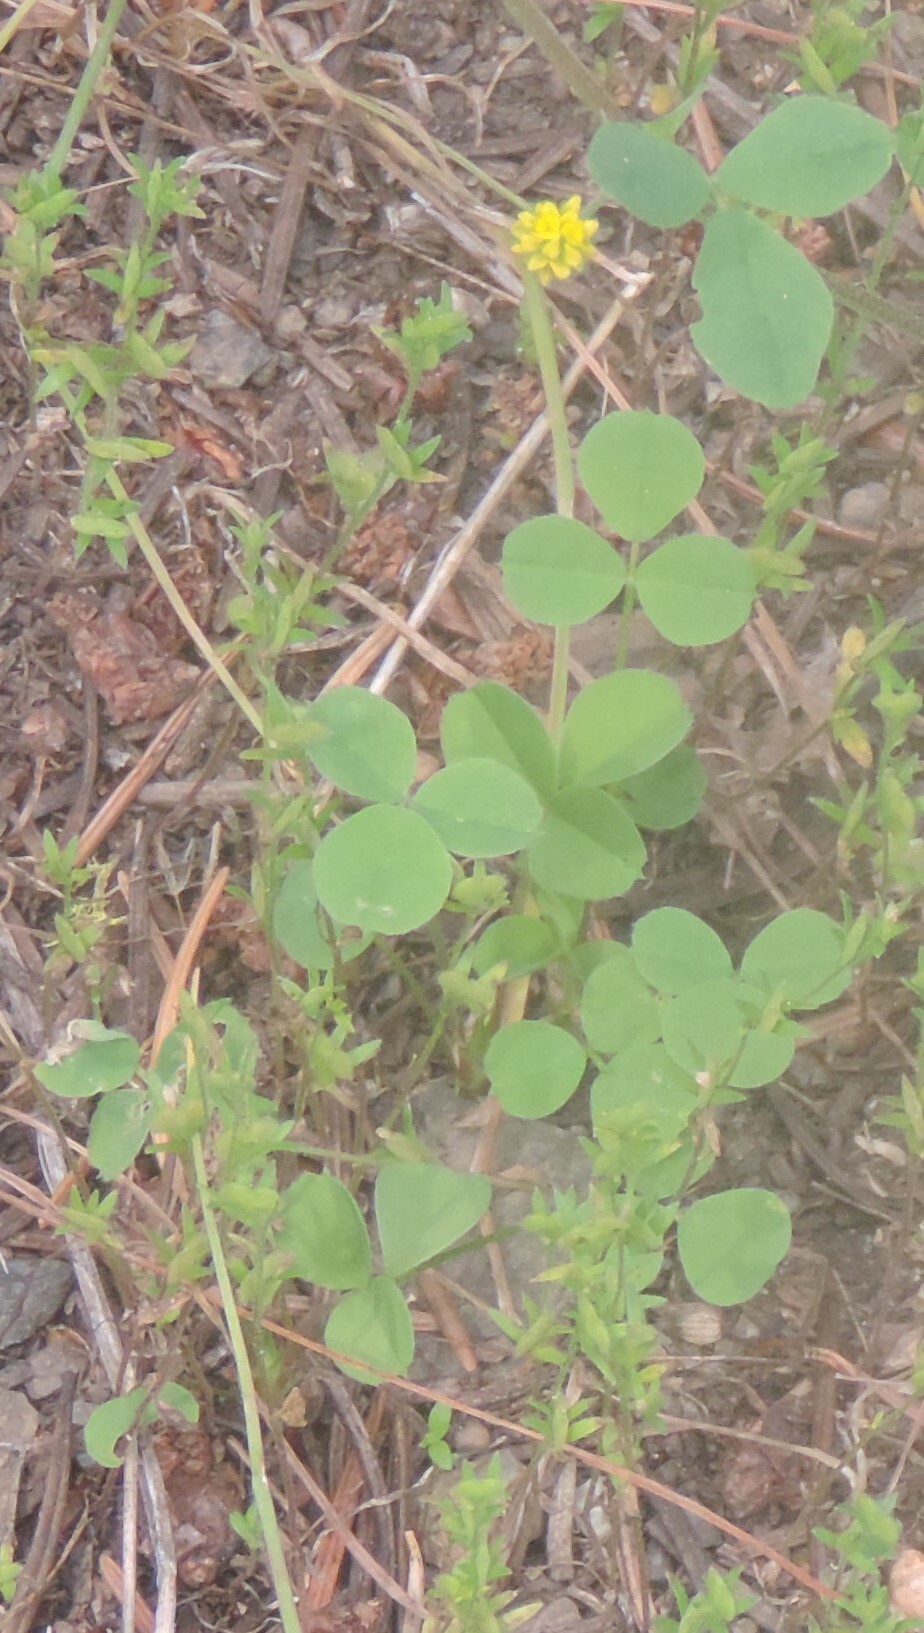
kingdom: Plantae
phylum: Tracheophyta
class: Magnoliopsida
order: Fabales
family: Fabaceae
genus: Medicago
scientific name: Medicago lupulina
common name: Black medick
